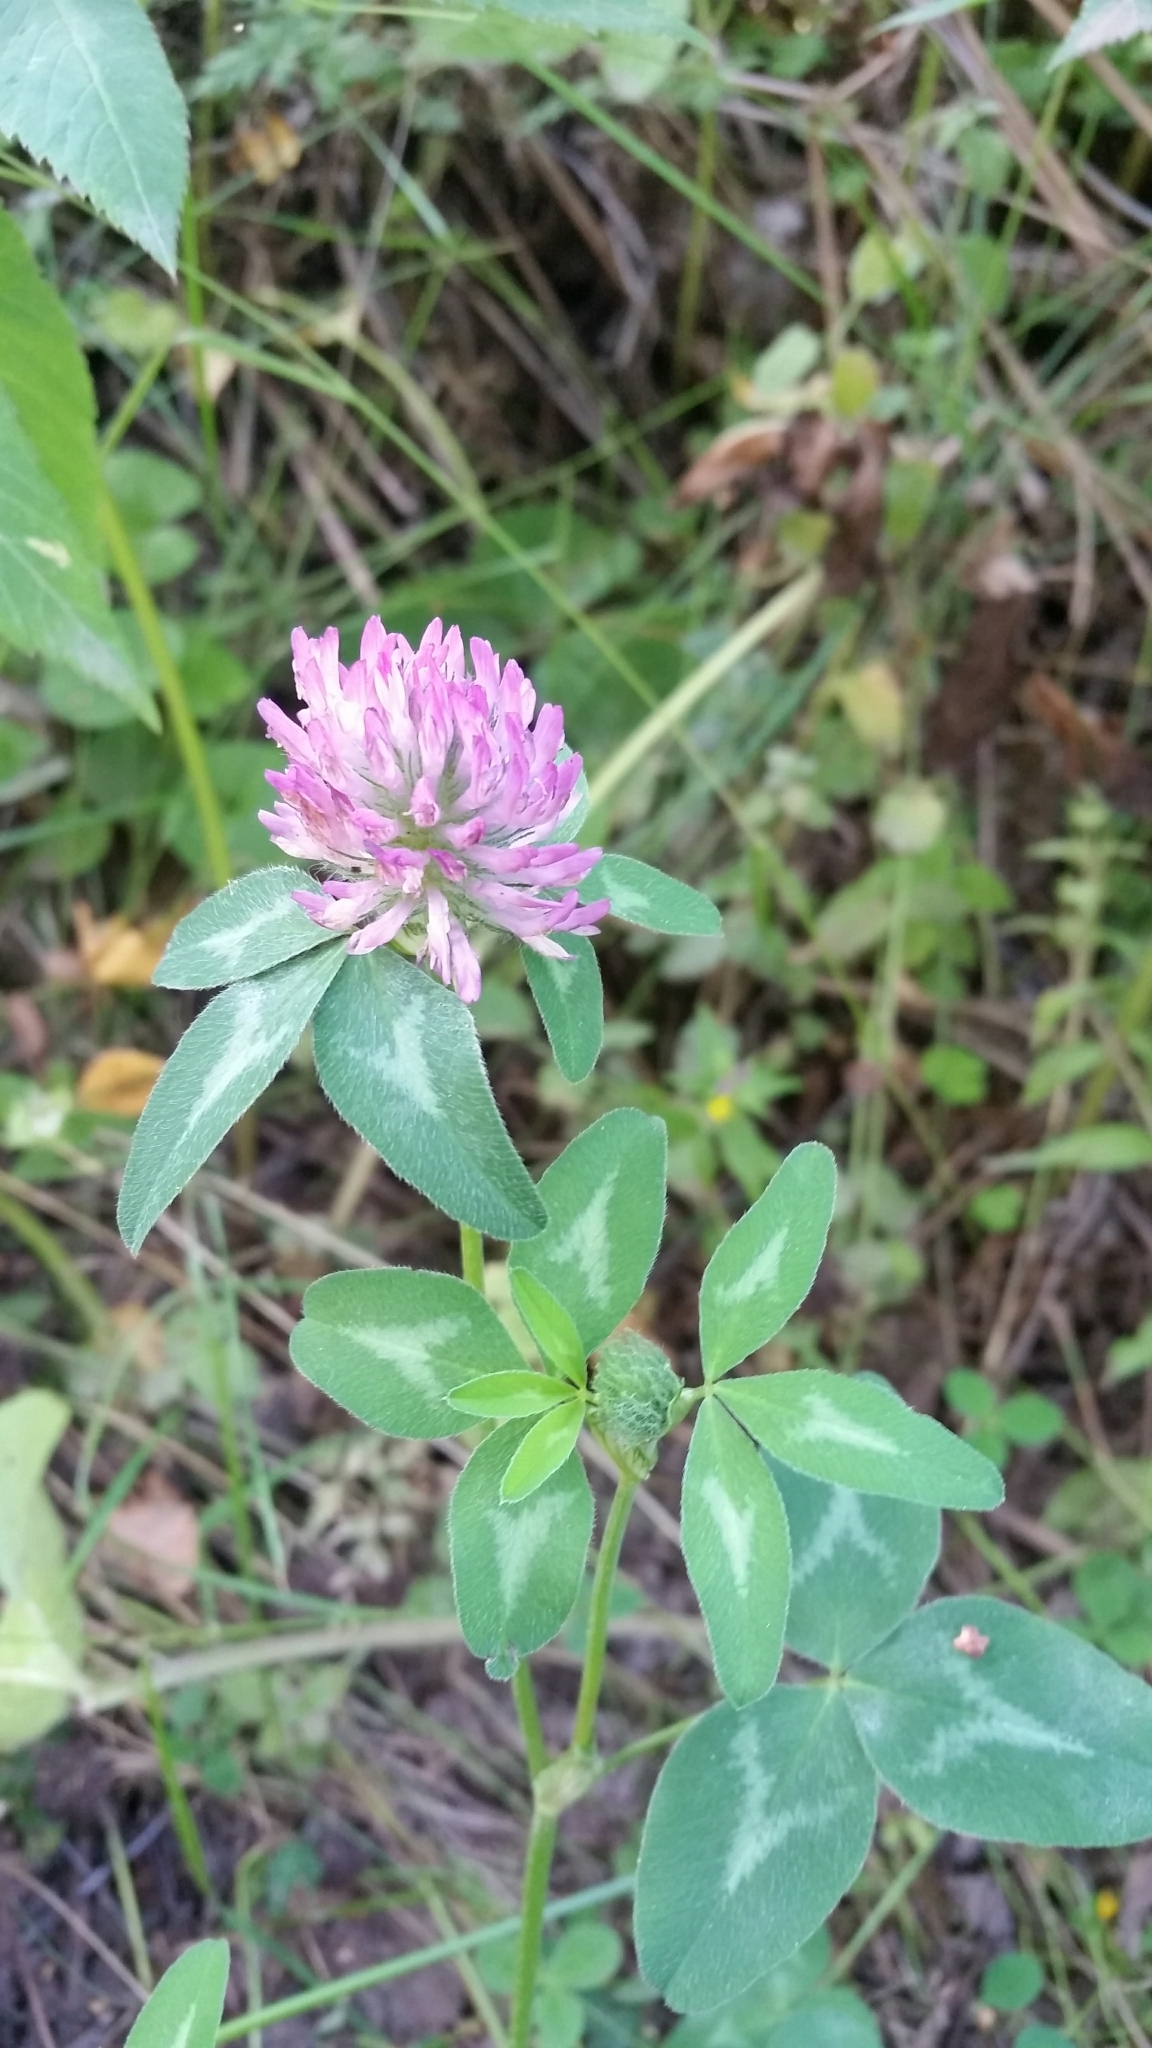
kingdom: Plantae
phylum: Tracheophyta
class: Magnoliopsida
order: Fabales
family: Fabaceae
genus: Trifolium
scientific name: Trifolium pratense
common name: Red clover
